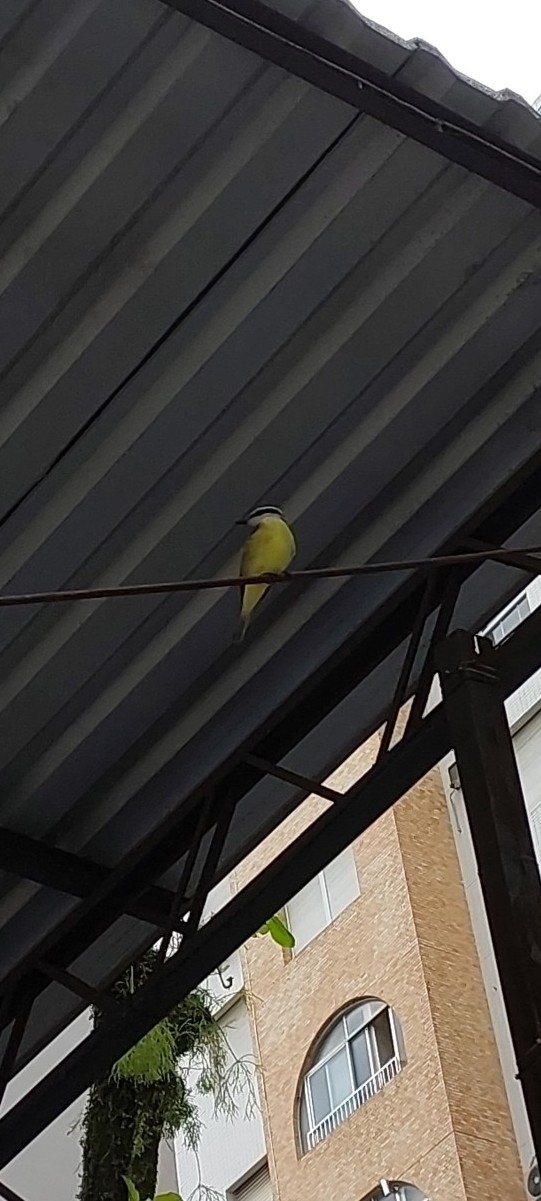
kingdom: Animalia
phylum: Chordata
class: Aves
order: Passeriformes
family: Tyrannidae
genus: Pitangus
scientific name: Pitangus sulphuratus
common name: Great kiskadee
